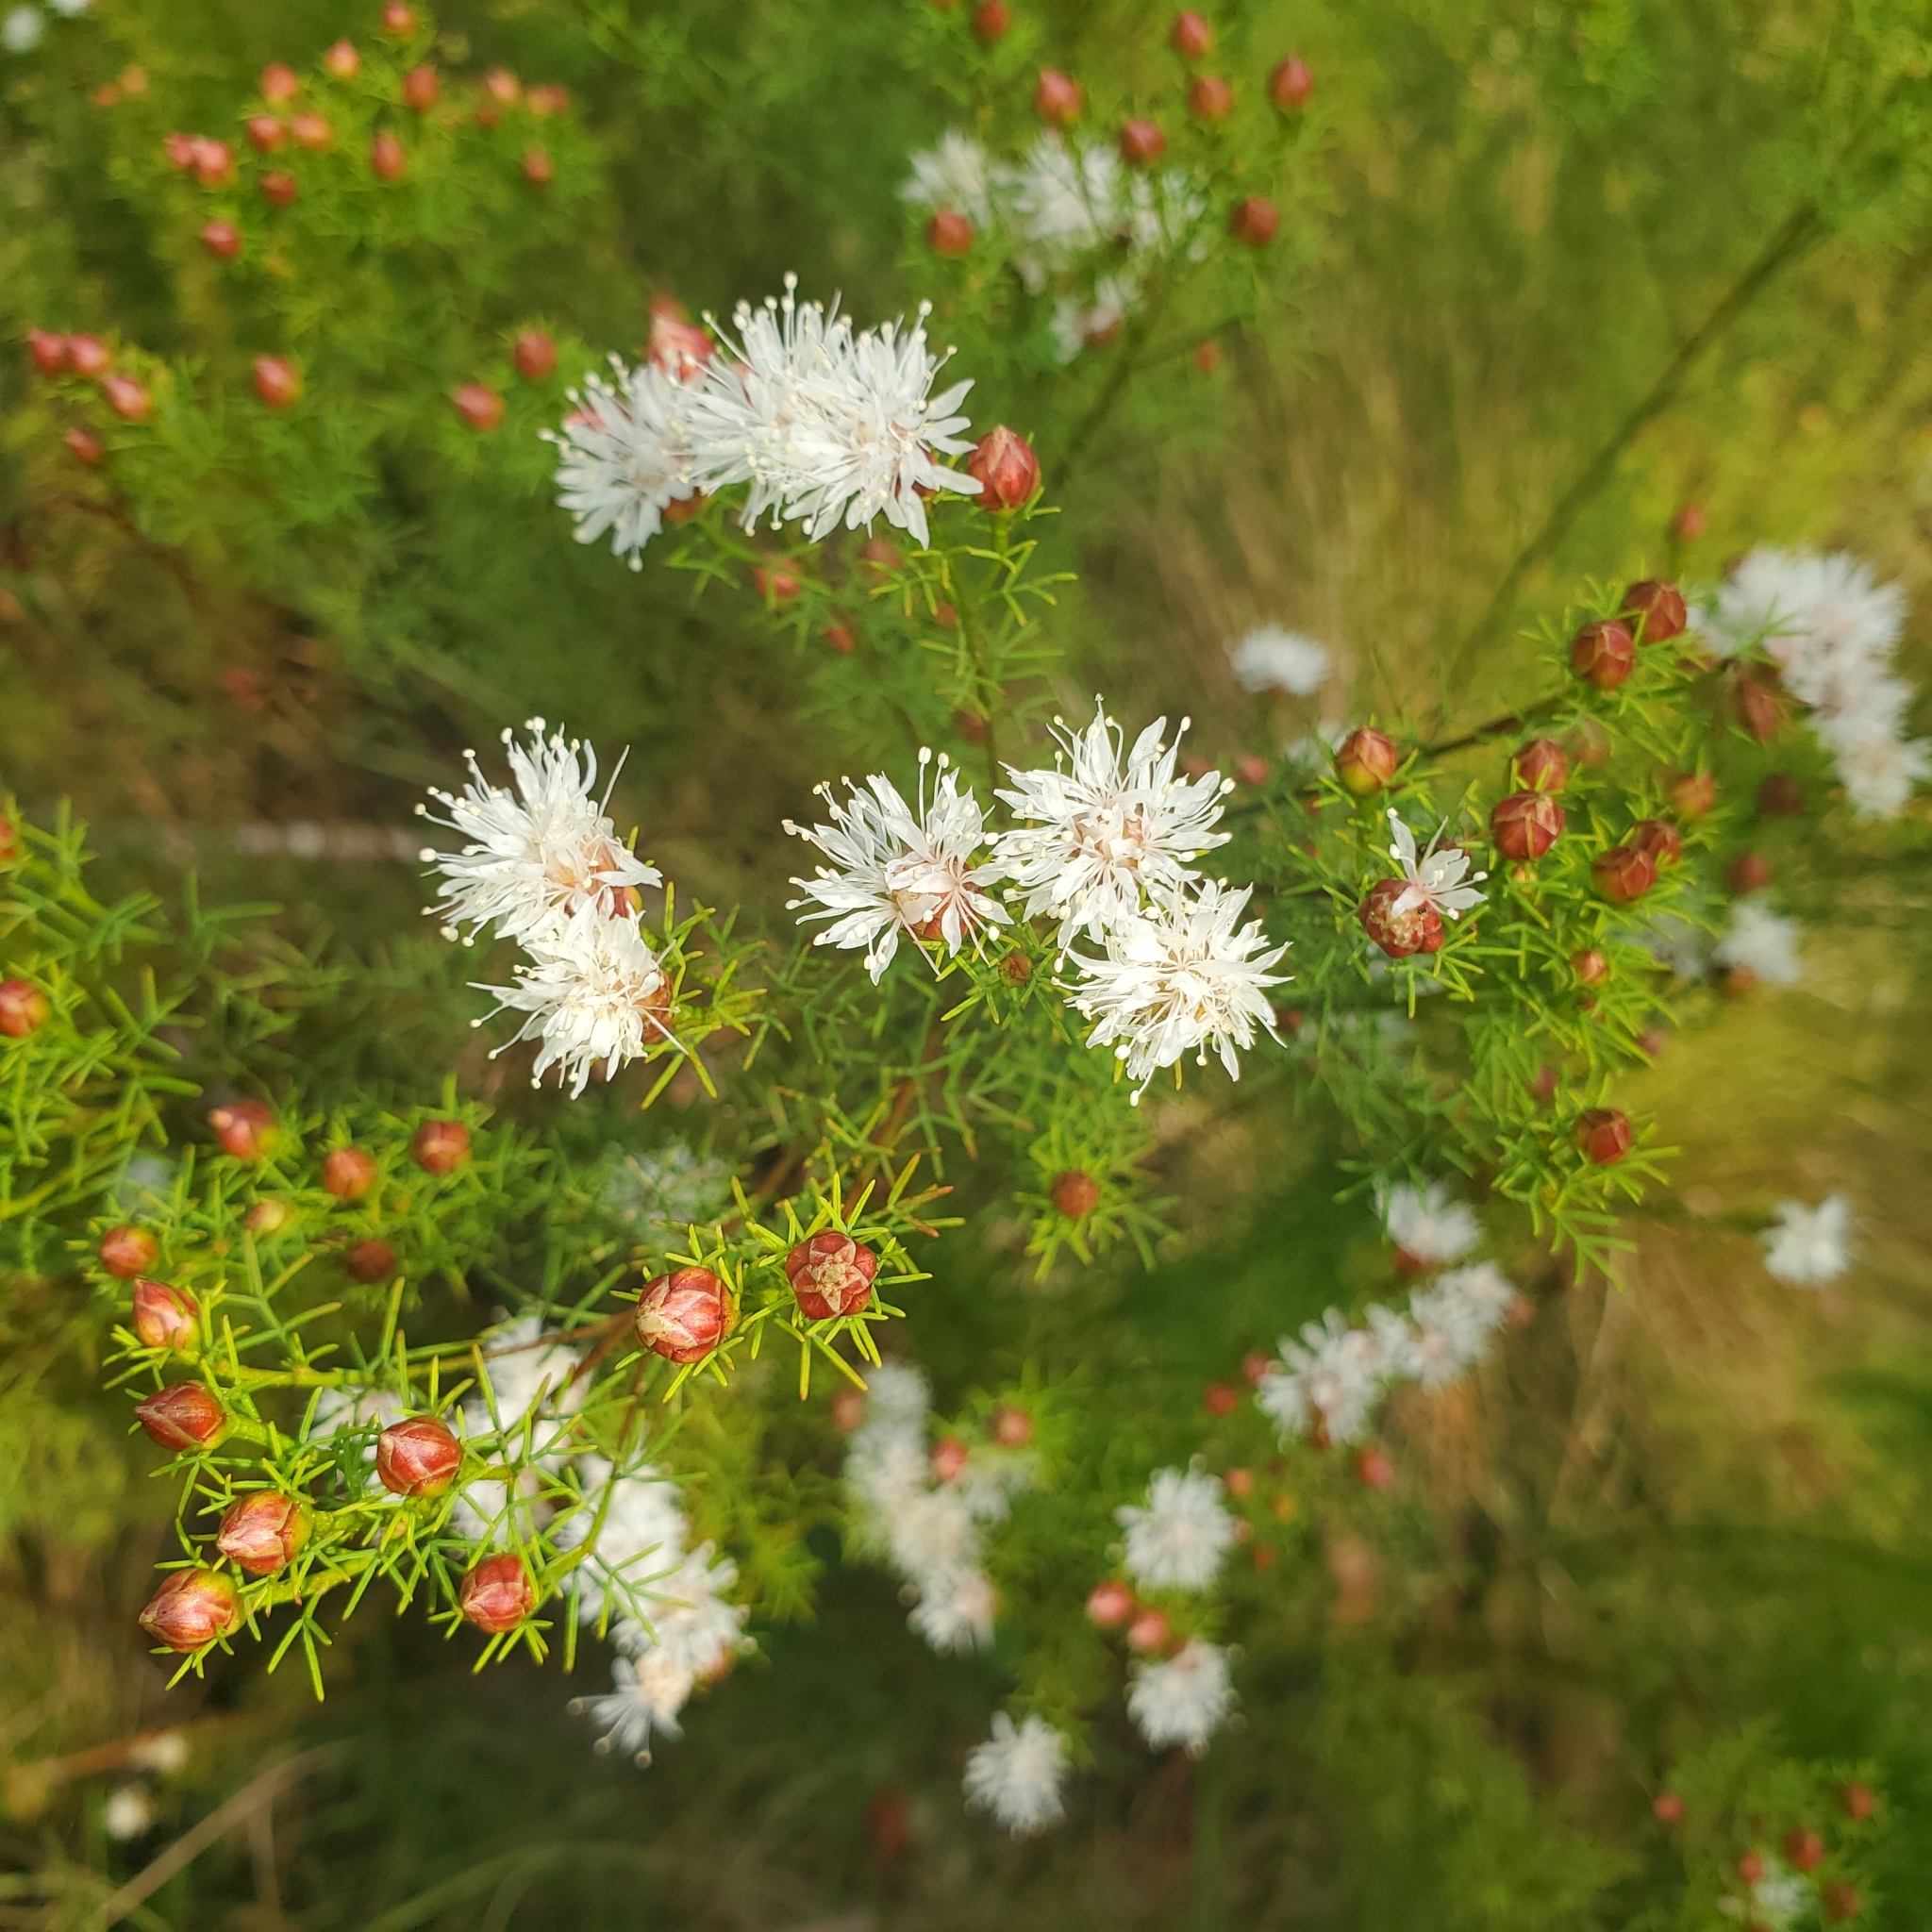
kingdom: Plantae
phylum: Tracheophyta
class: Magnoliopsida
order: Fabales
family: Fabaceae
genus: Dalea
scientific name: Dalea pinnata
